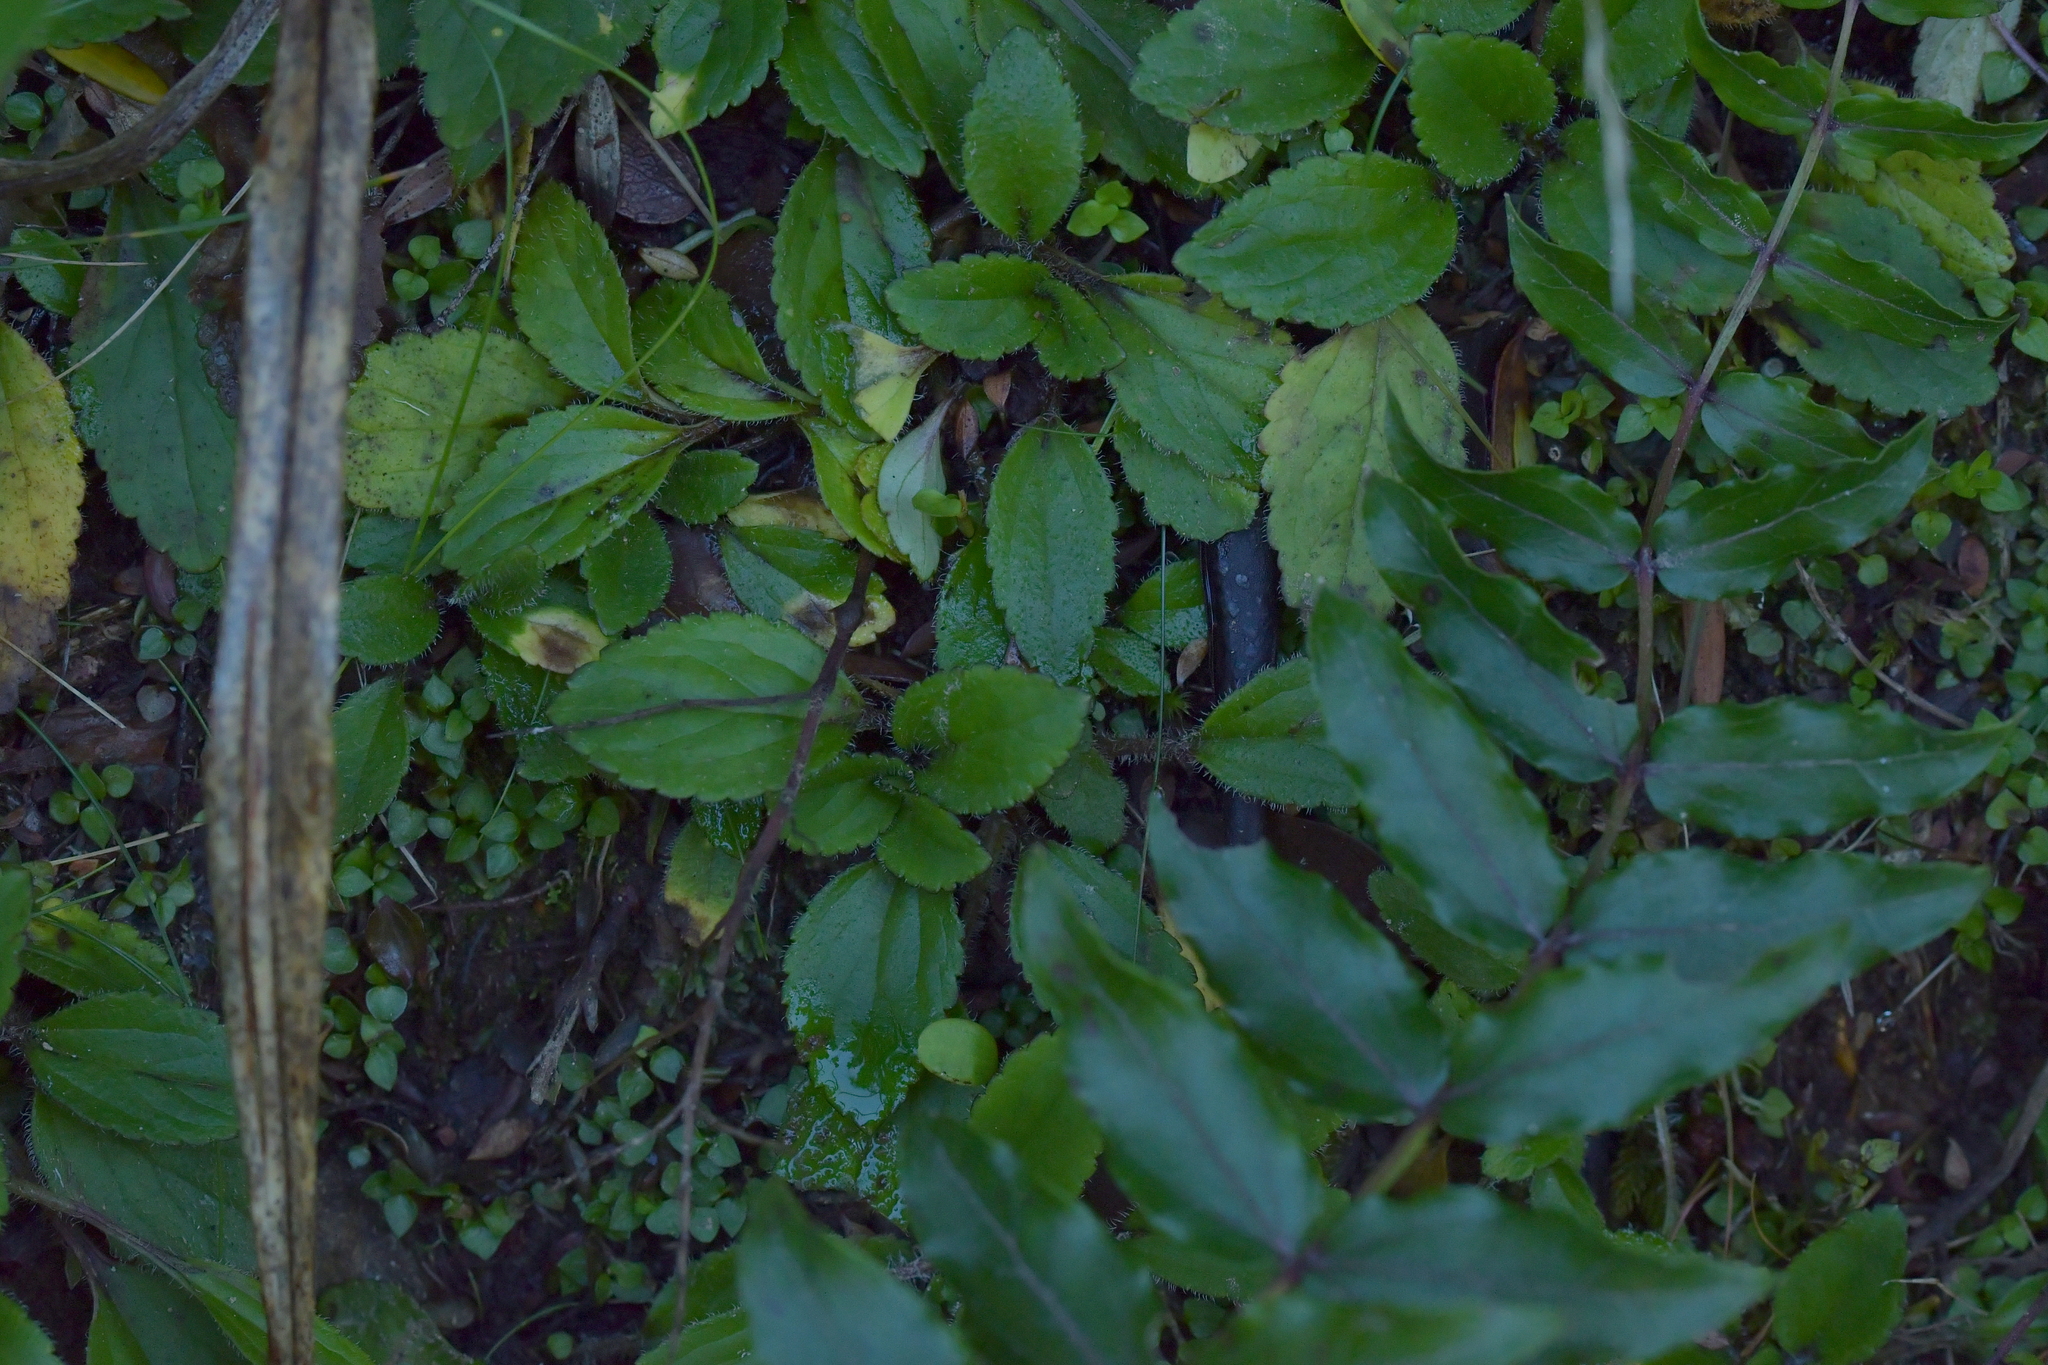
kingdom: Plantae
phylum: Tracheophyta
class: Magnoliopsida
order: Lamiales
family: Plantaginaceae
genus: Ourisia
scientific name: Ourisia macrophylla
